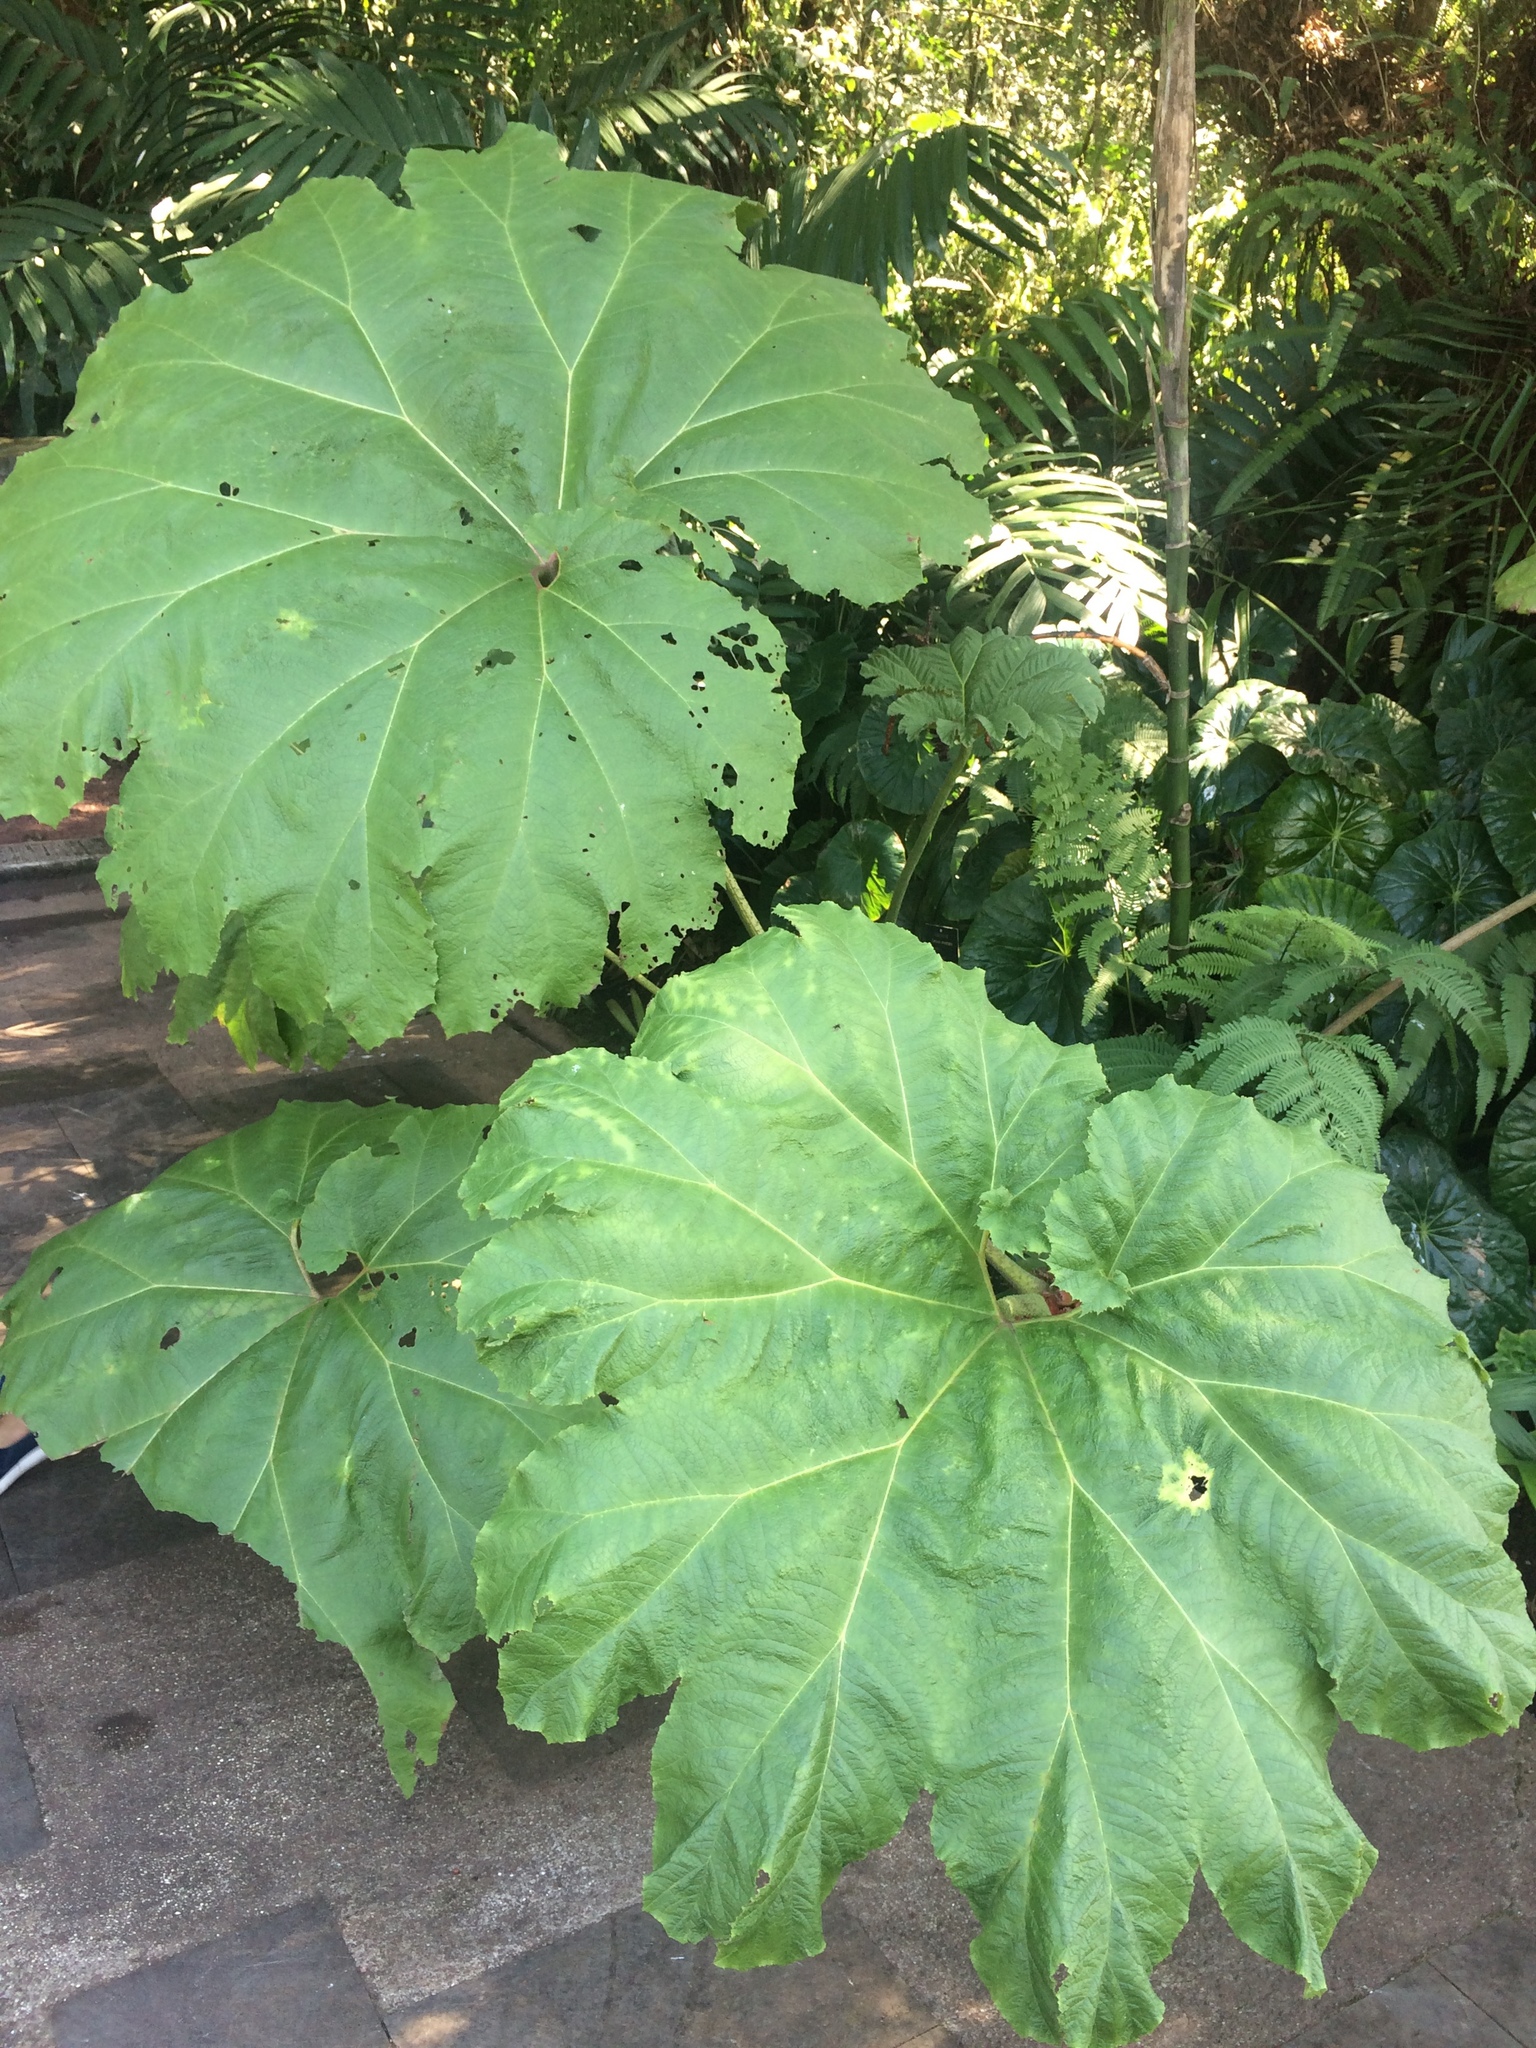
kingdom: Plantae
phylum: Tracheophyta
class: Magnoliopsida
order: Gunnerales
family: Gunneraceae
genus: Gunnera
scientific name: Gunnera mexicana
